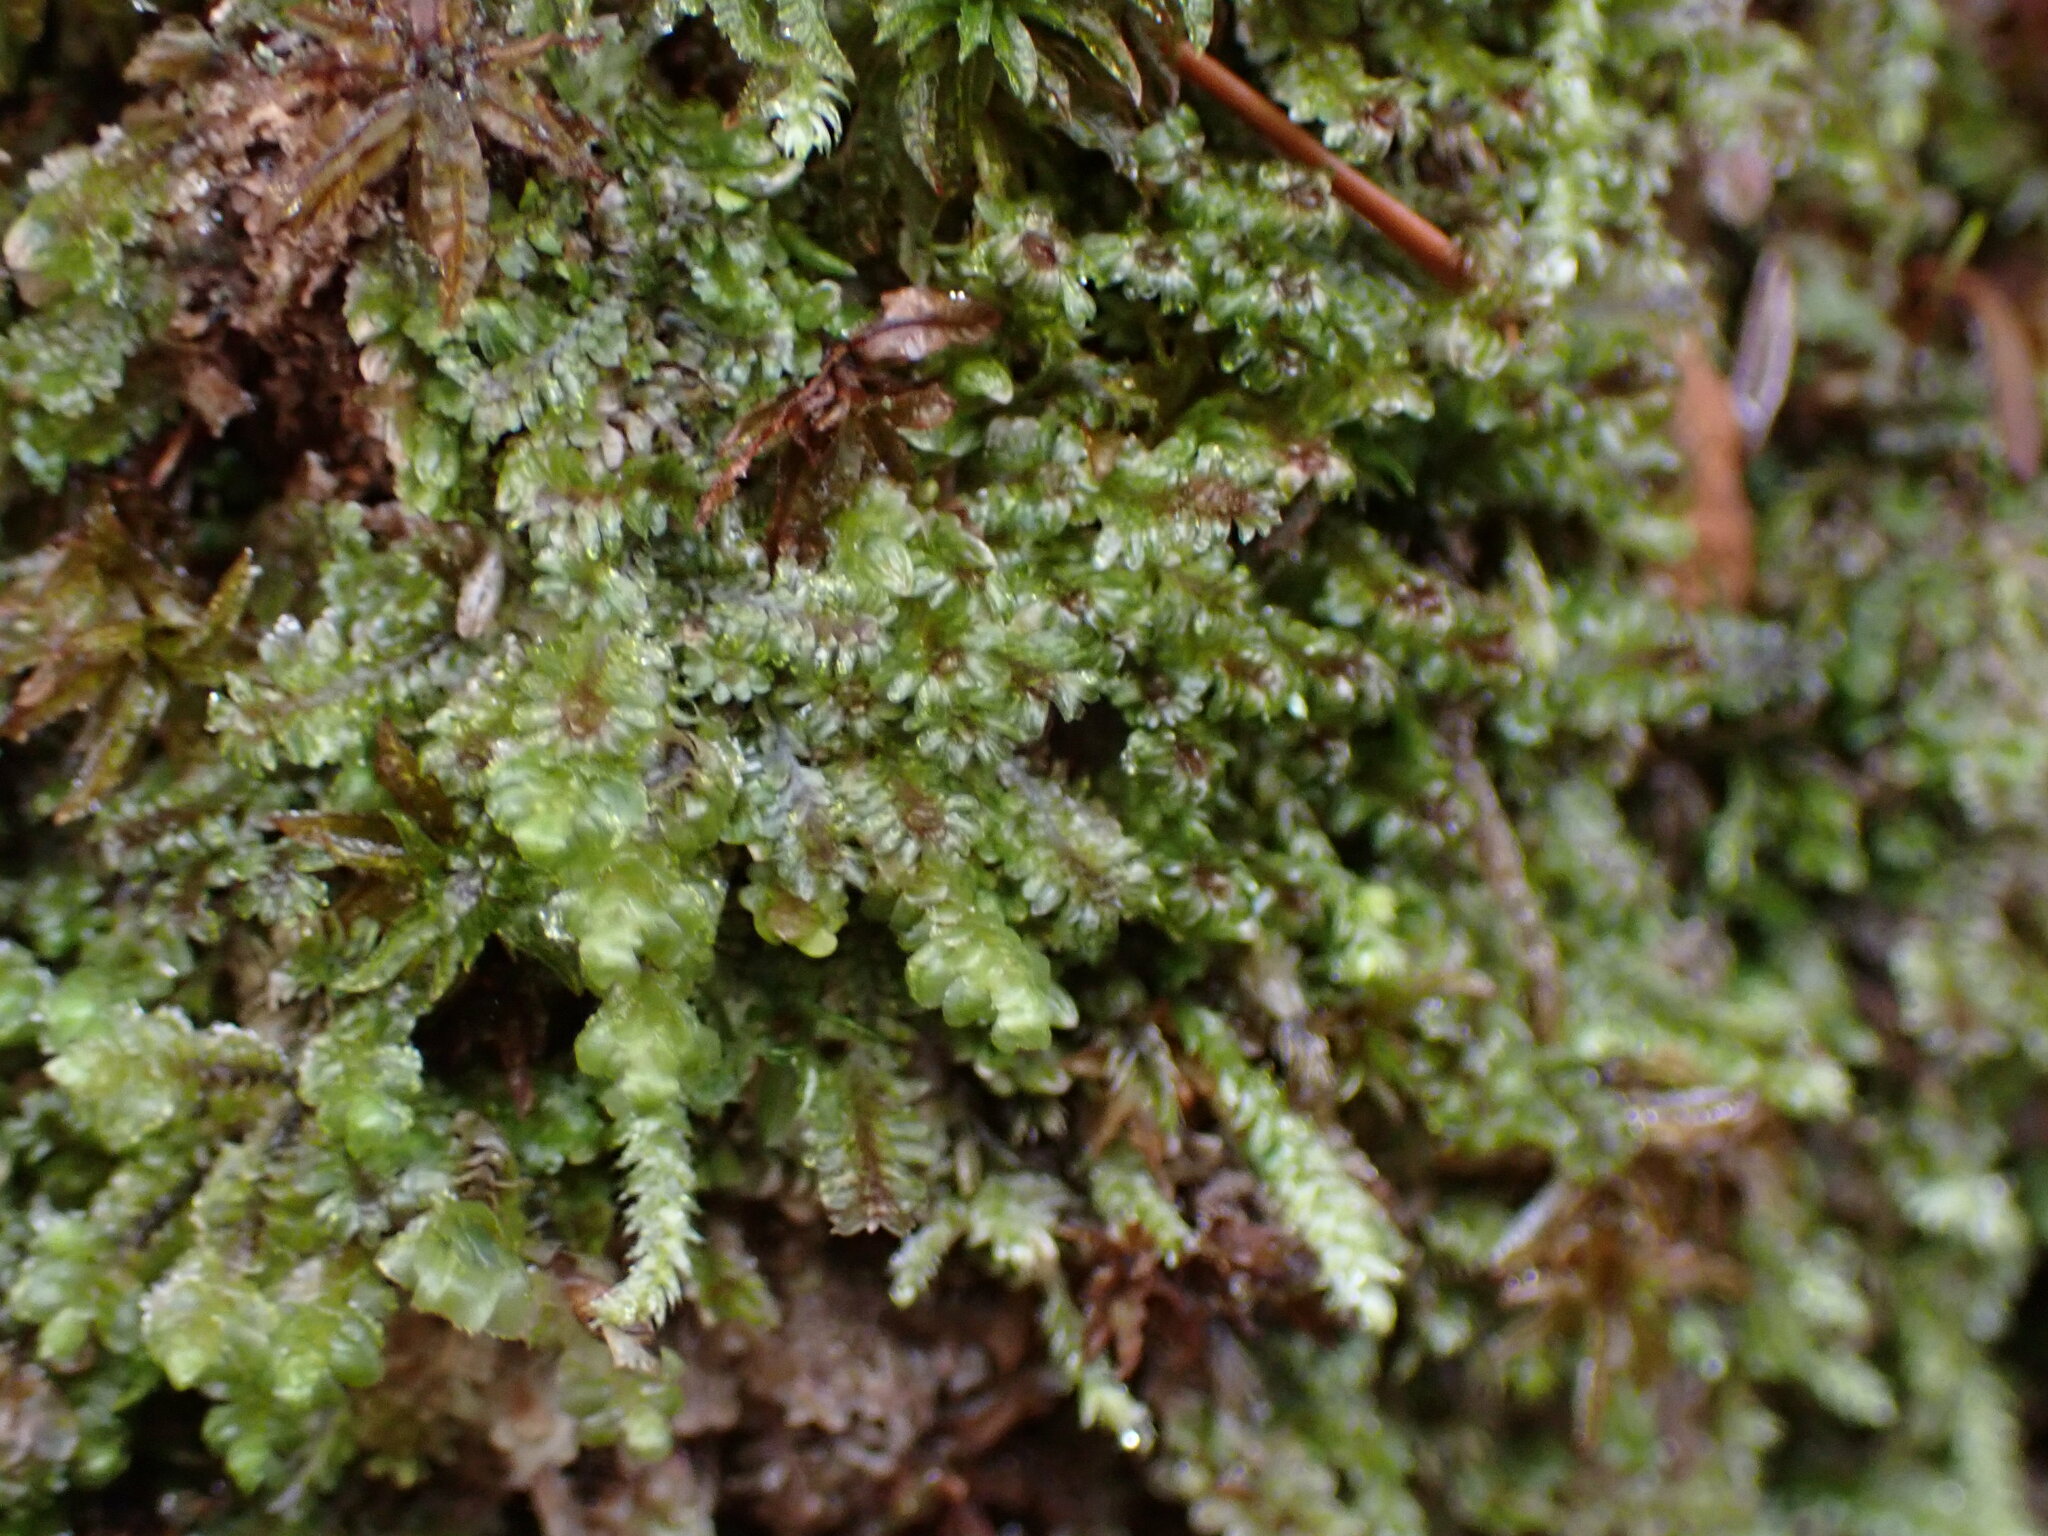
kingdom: Plantae
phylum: Marchantiophyta
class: Jungermanniopsida
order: Jungermanniales
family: Scapaniaceae
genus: Diplophyllum
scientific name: Diplophyllum albicans
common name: White earwort
